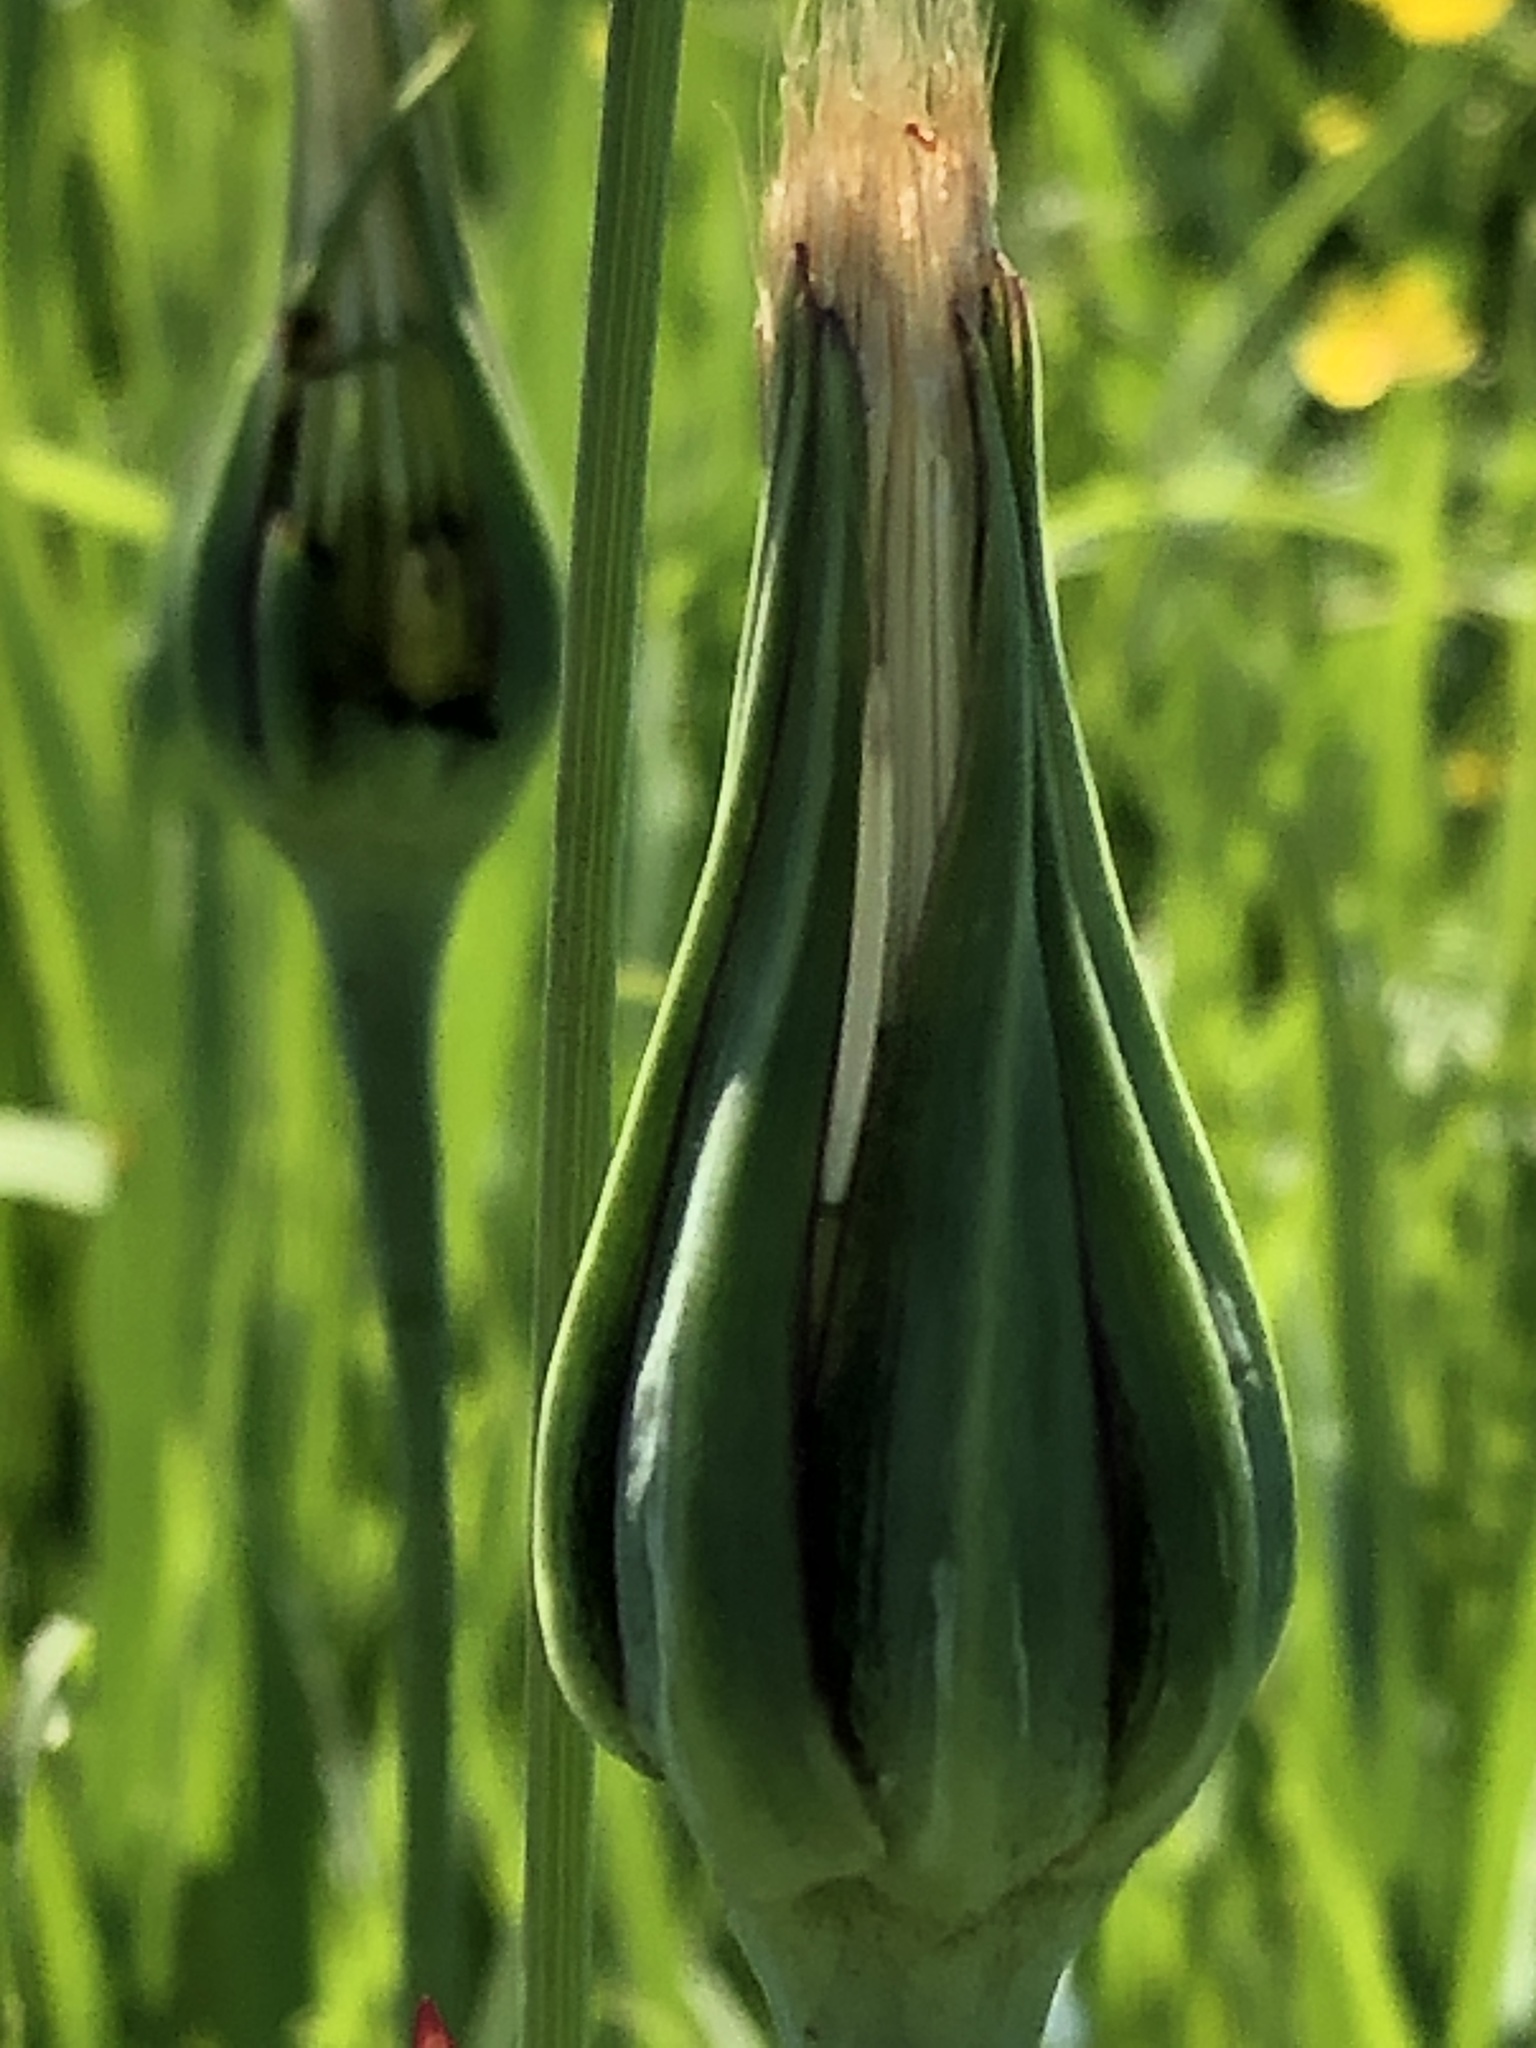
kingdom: Plantae
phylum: Tracheophyta
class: Magnoliopsida
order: Asterales
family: Asteraceae
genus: Tragopogon
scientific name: Tragopogon pratensis
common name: Goat's-beard
